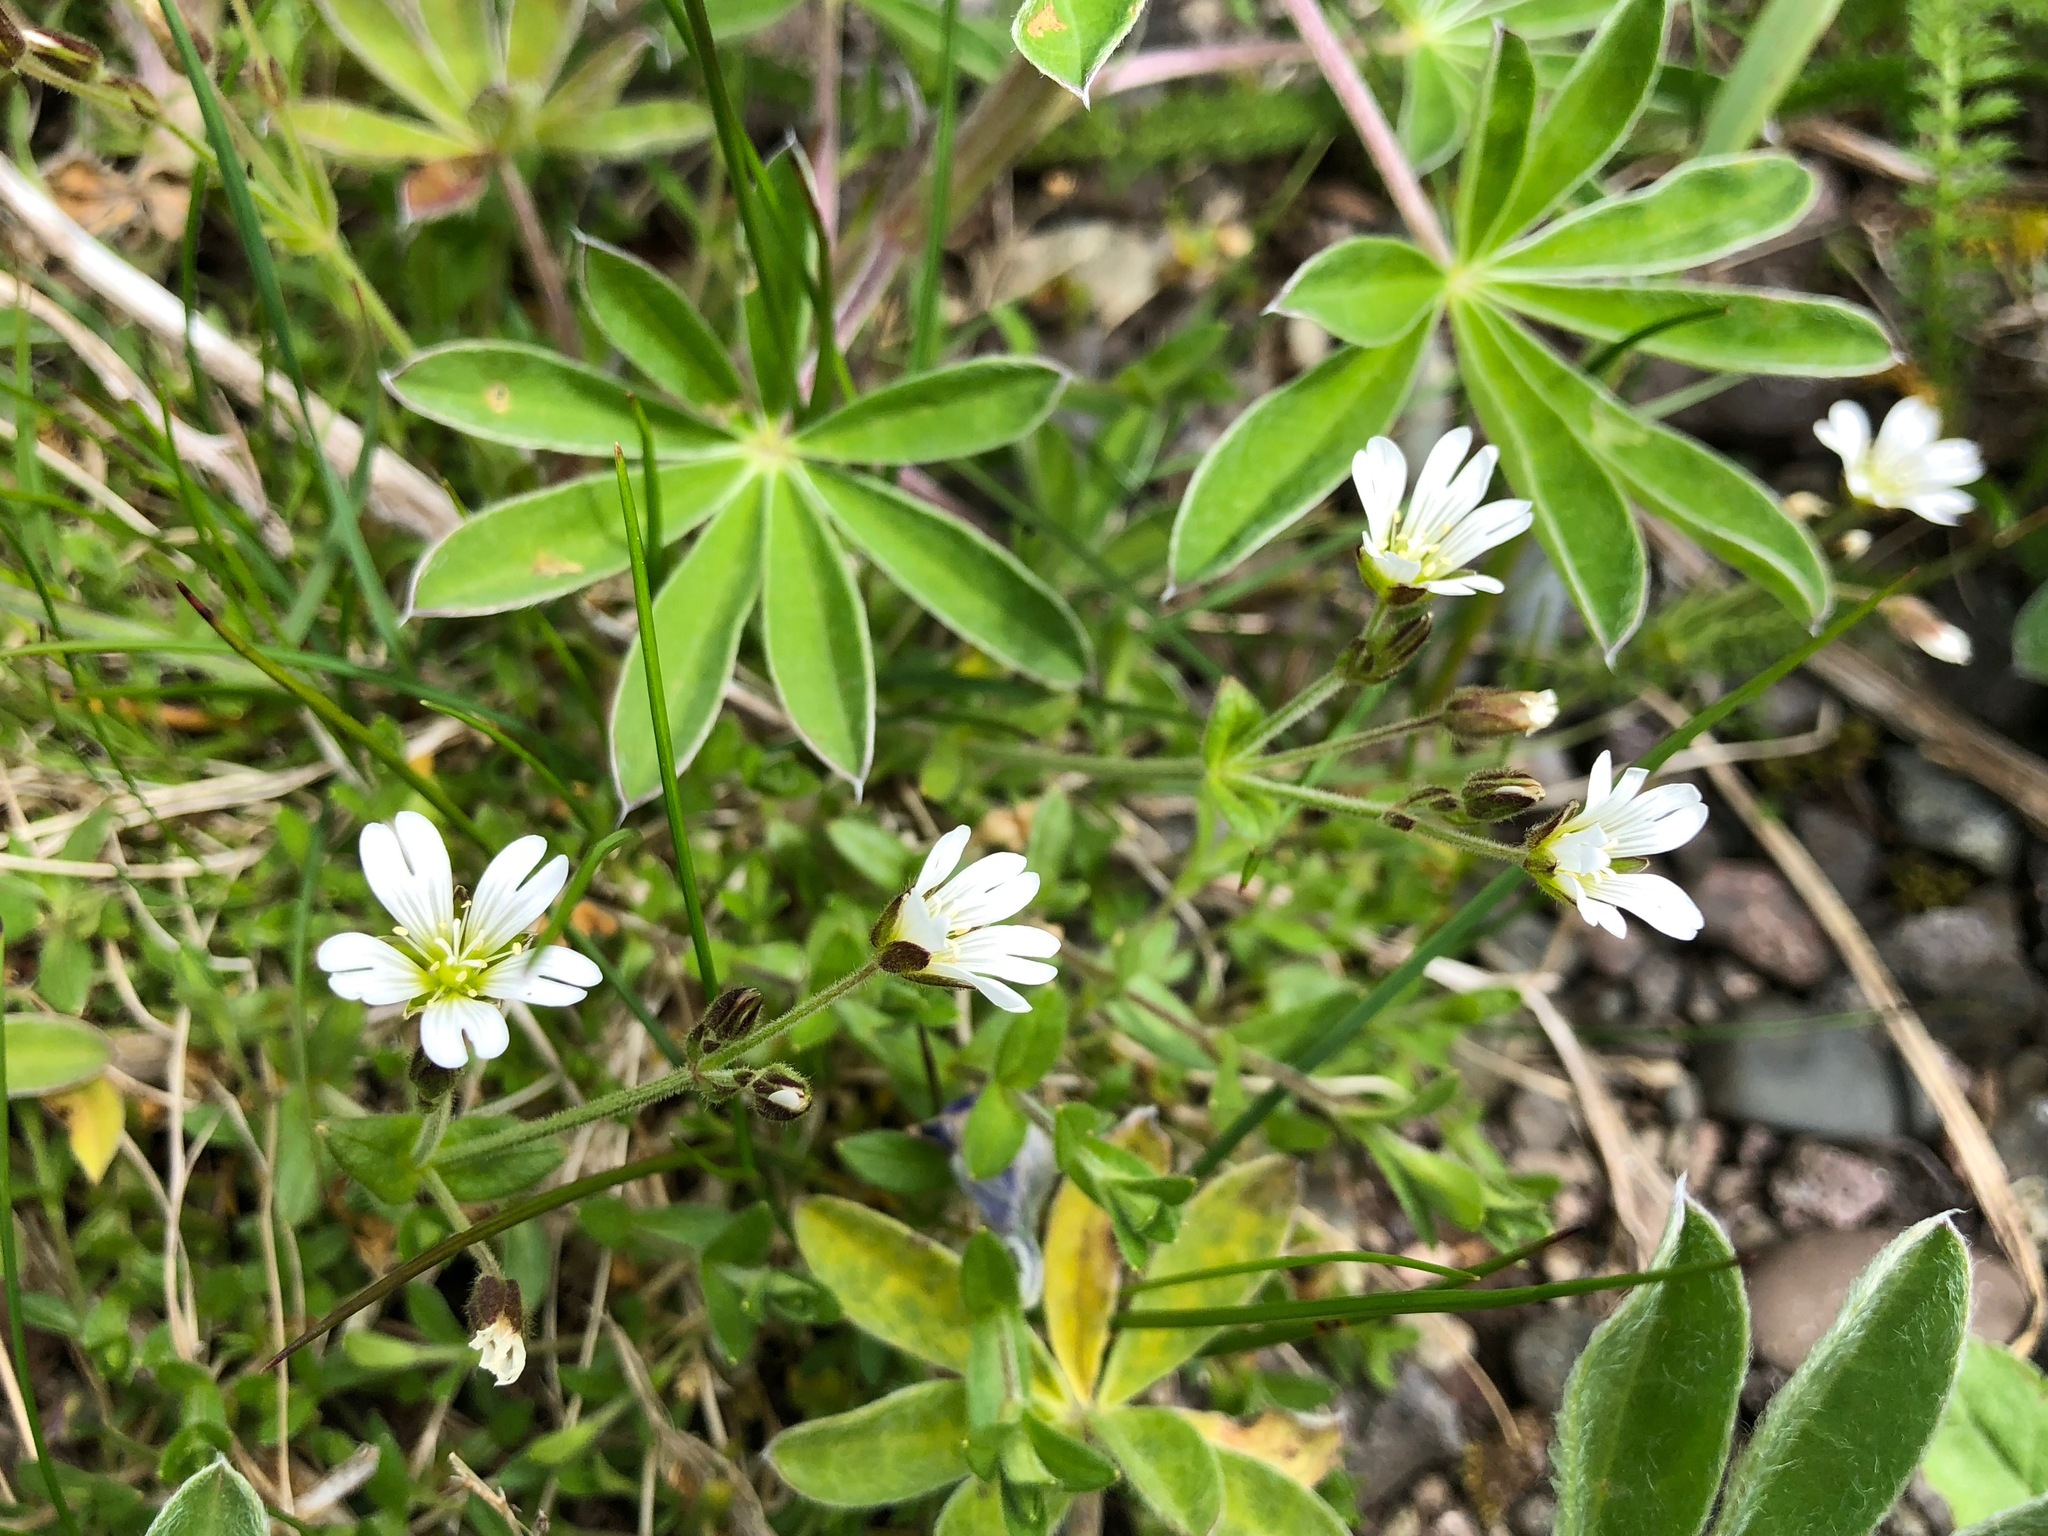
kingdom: Plantae
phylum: Tracheophyta
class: Magnoliopsida
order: Caryophyllales
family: Caryophyllaceae
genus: Cerastium
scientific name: Cerastium beeringianum
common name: Bering mouse-ear chickweed
